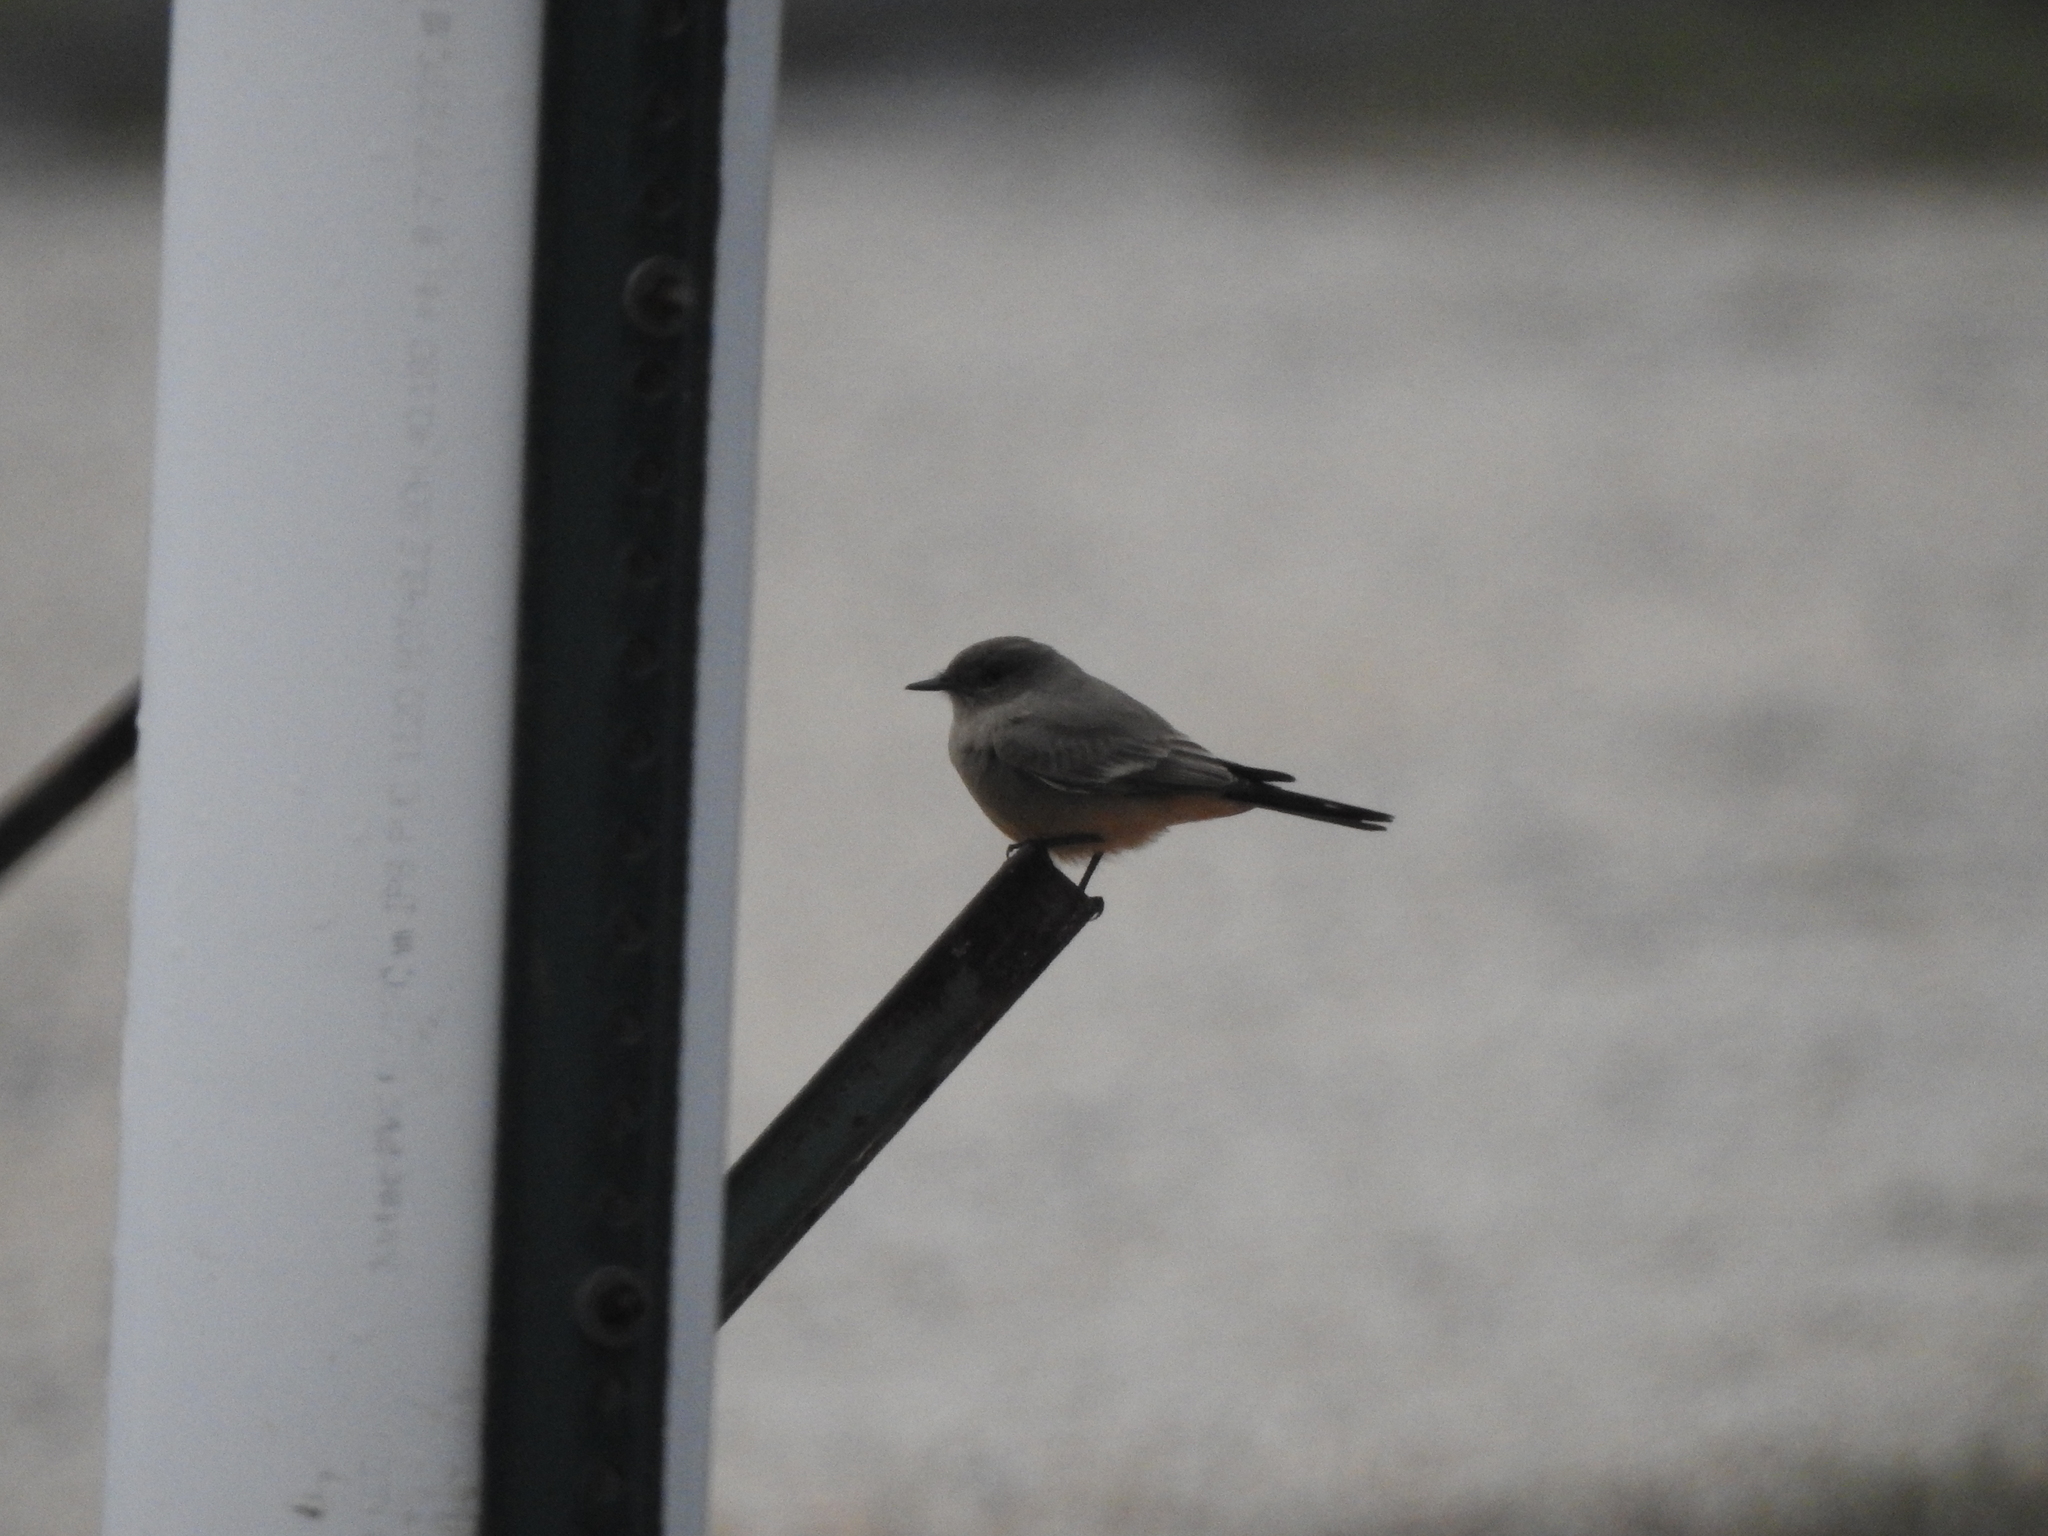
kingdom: Animalia
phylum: Chordata
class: Aves
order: Passeriformes
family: Tyrannidae
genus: Sayornis
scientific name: Sayornis saya
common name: Say's phoebe
